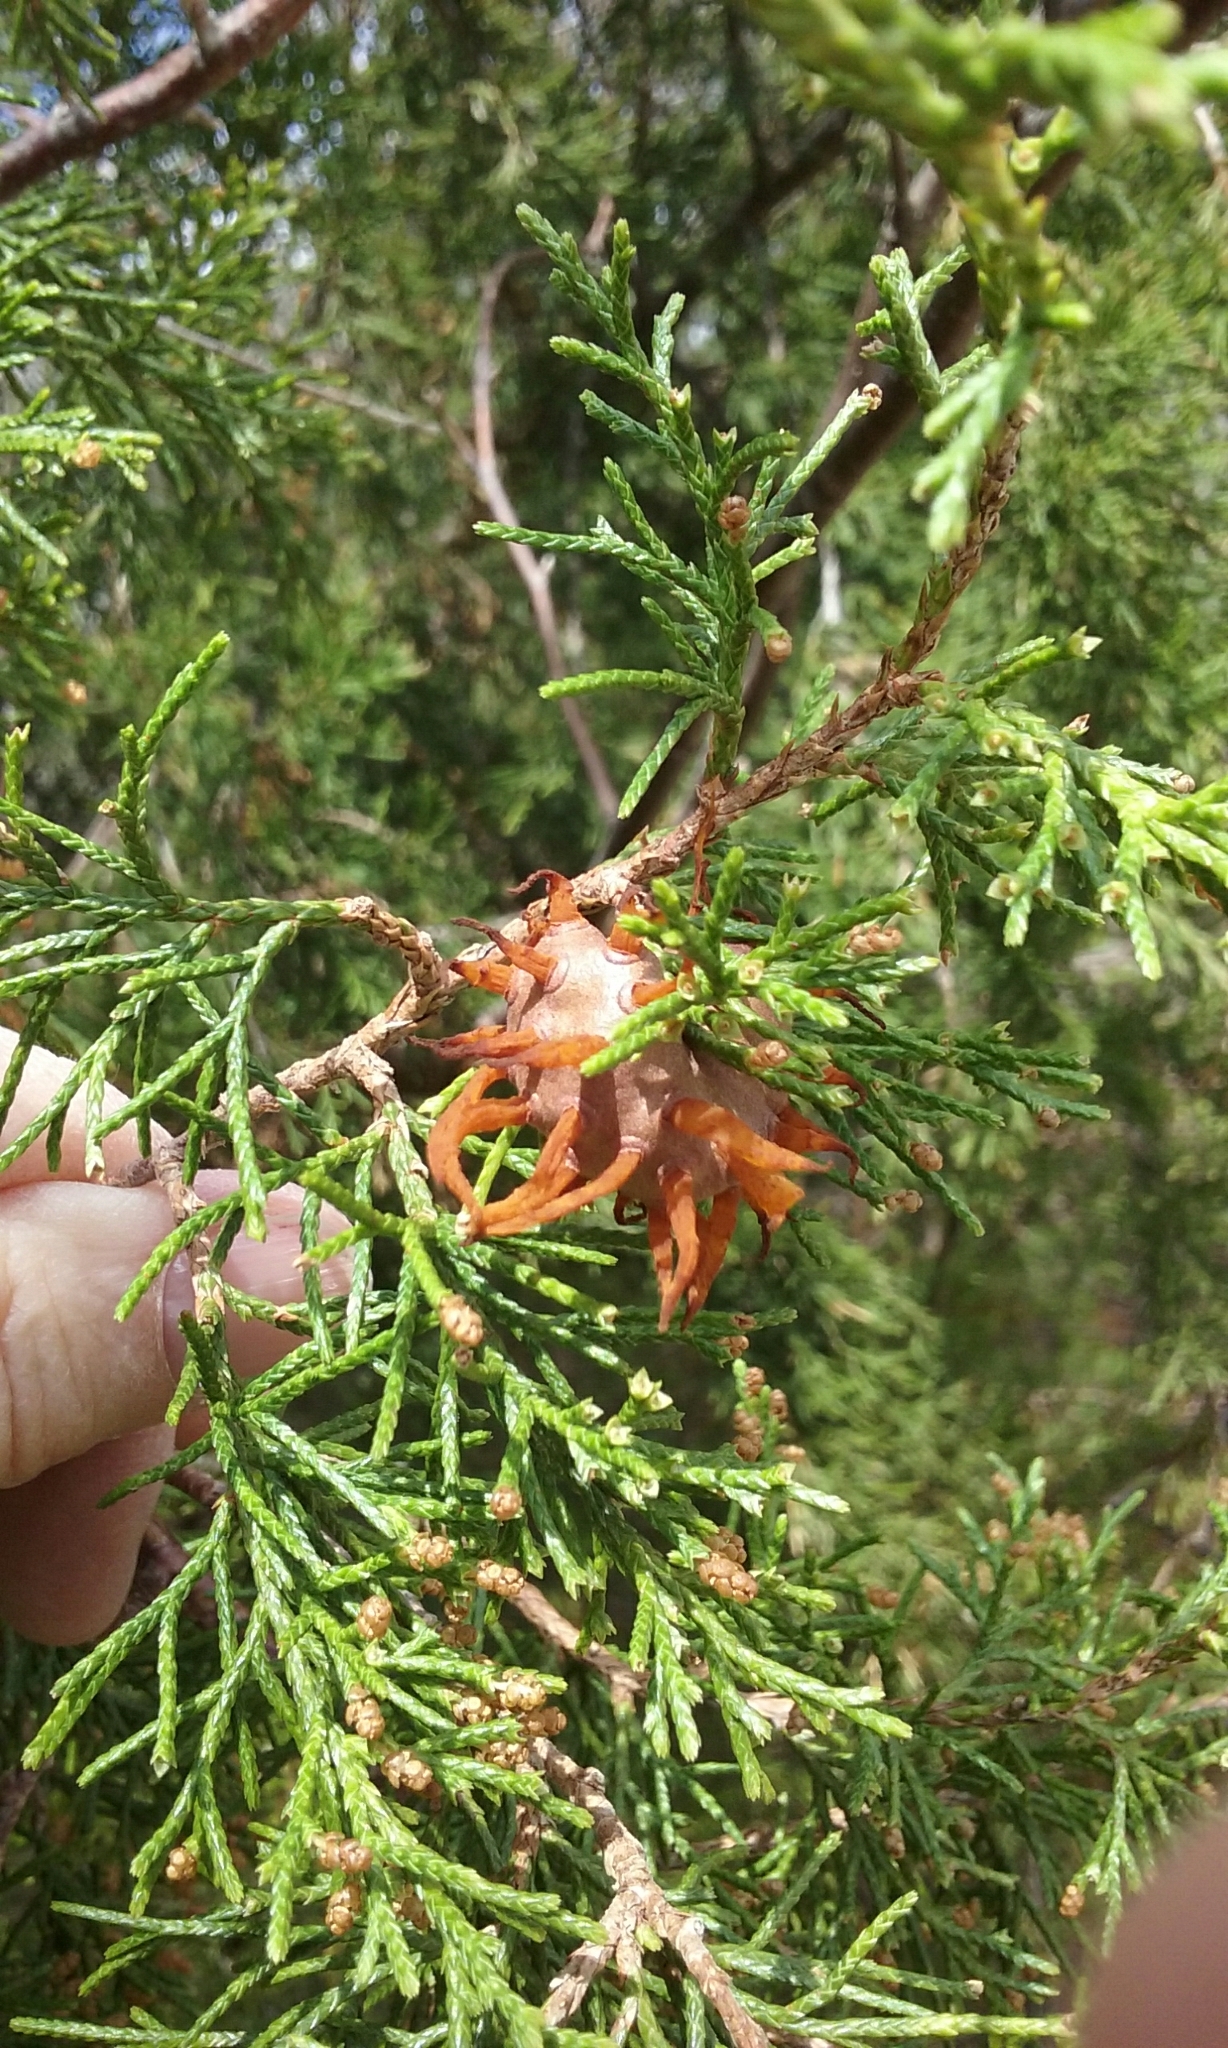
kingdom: Fungi
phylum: Basidiomycota
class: Pucciniomycetes
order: Pucciniales
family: Gymnosporangiaceae
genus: Gymnosporangium
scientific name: Gymnosporangium juniperi-virginianae
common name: Juniper-apple rust
